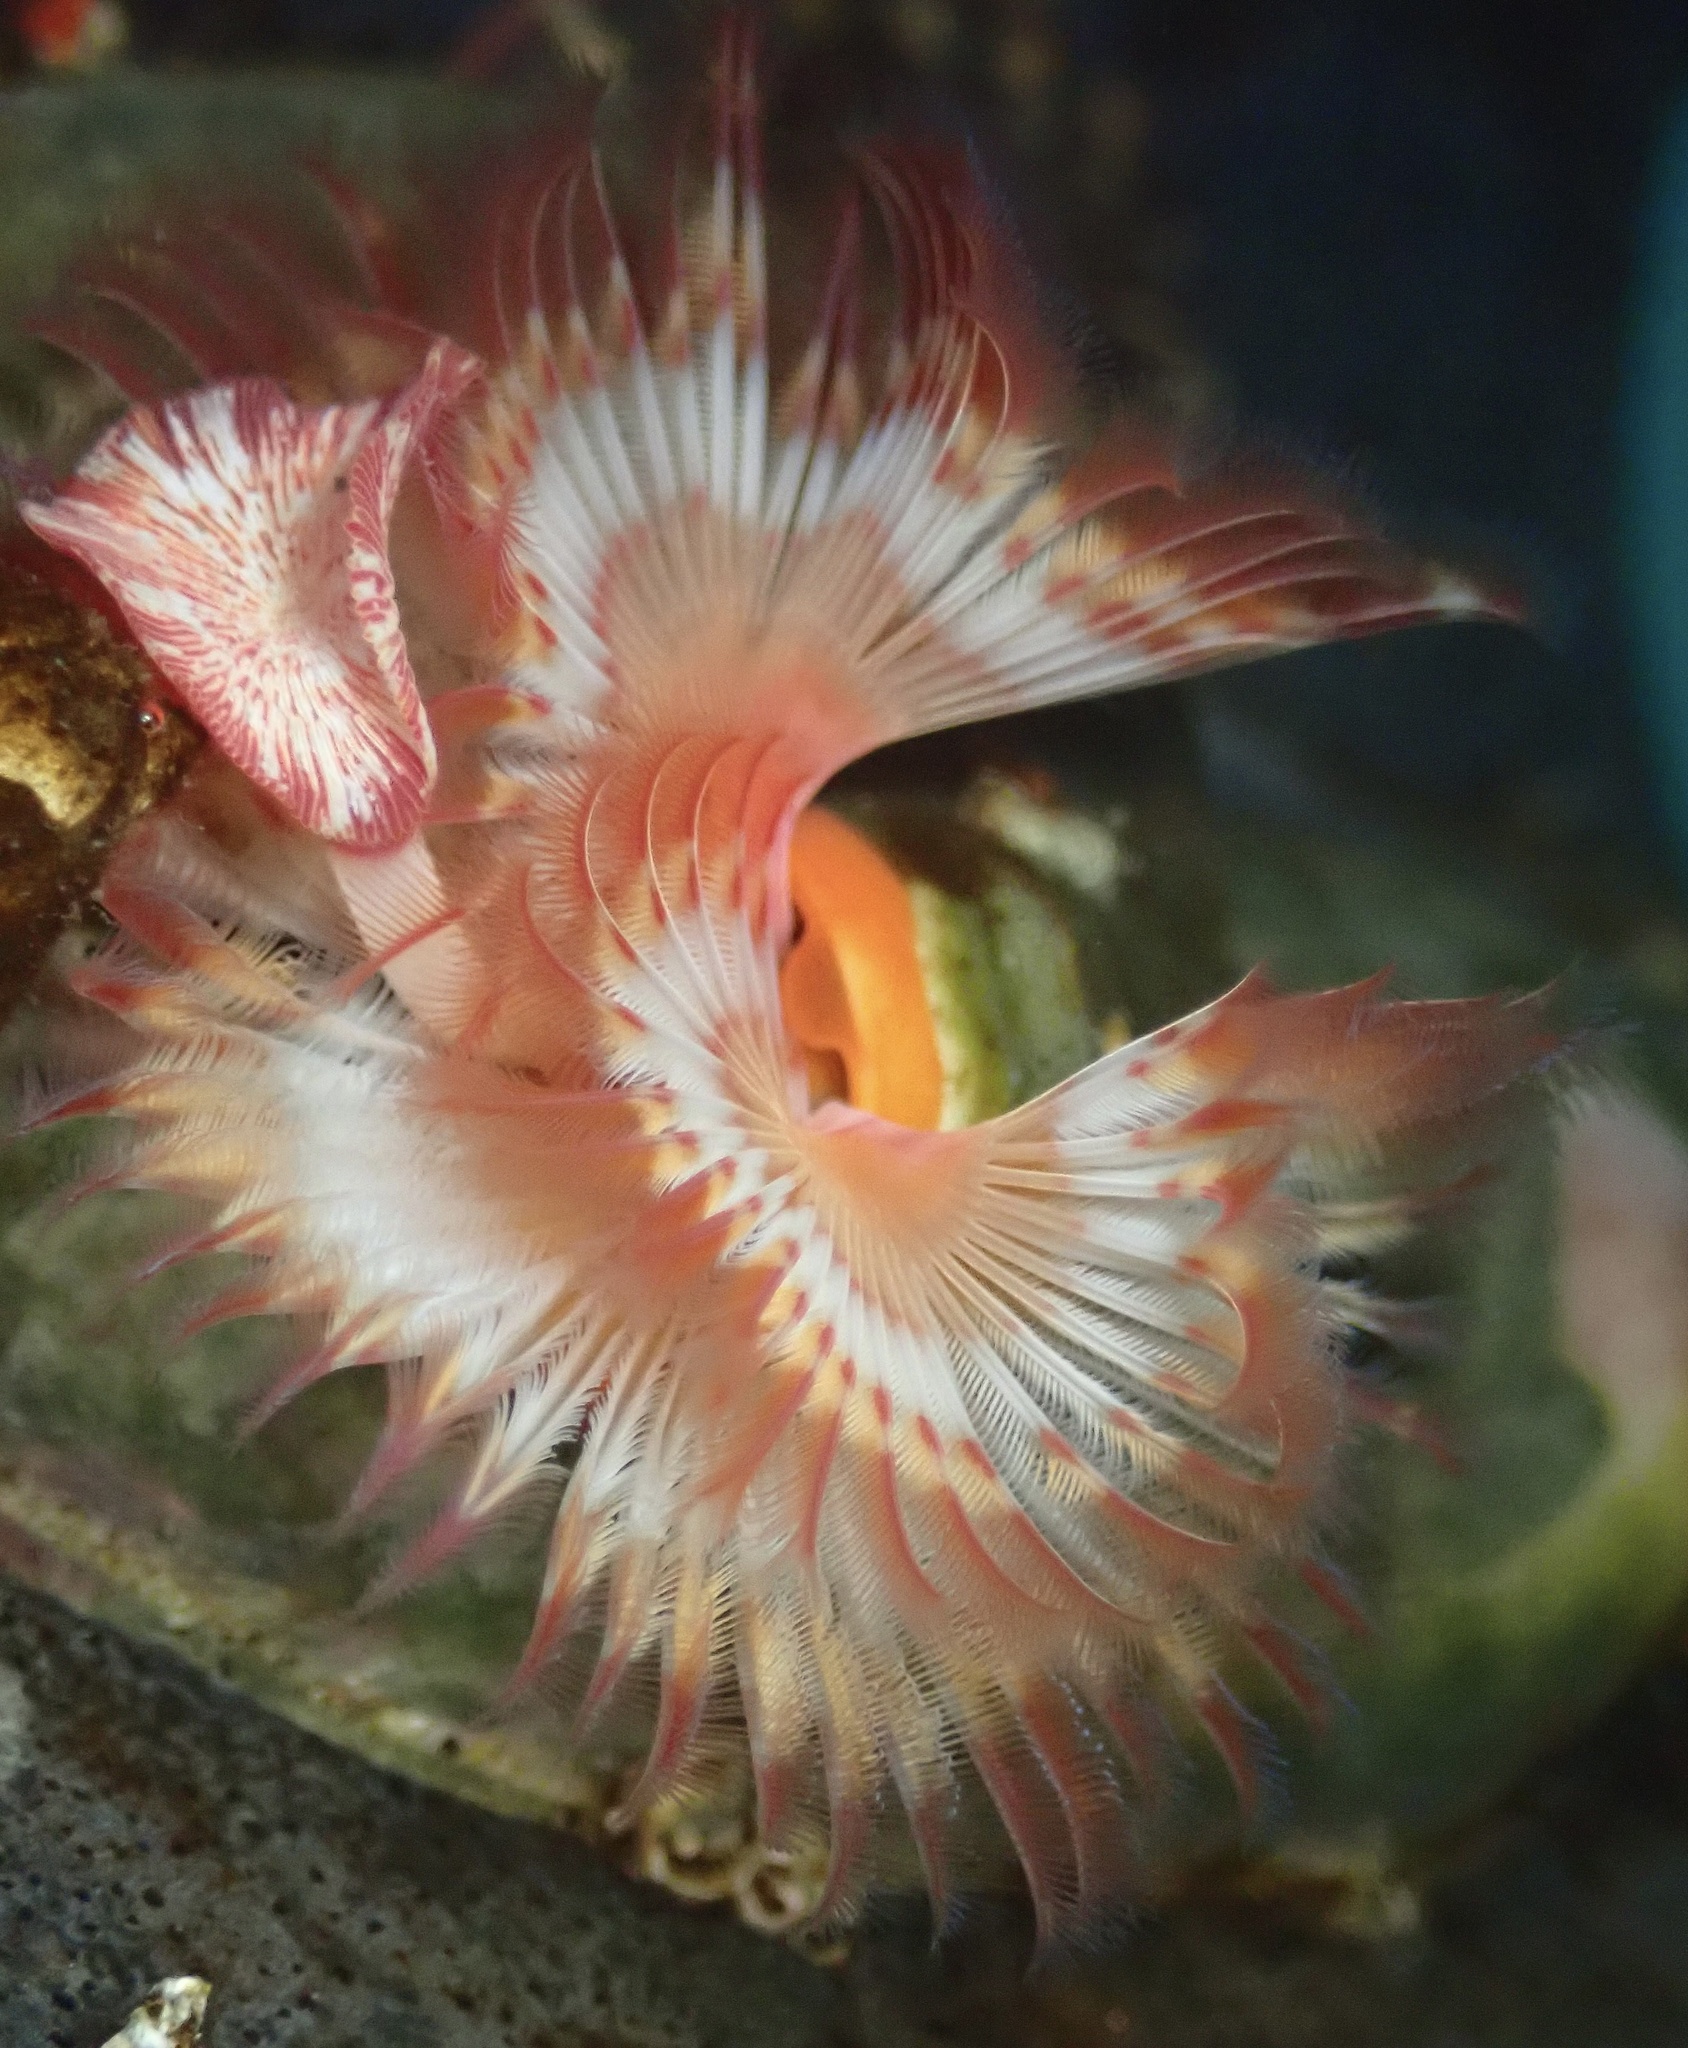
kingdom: Animalia
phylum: Annelida
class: Polychaeta
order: Sabellida
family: Serpulidae
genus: Serpula
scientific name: Serpula columbiana
